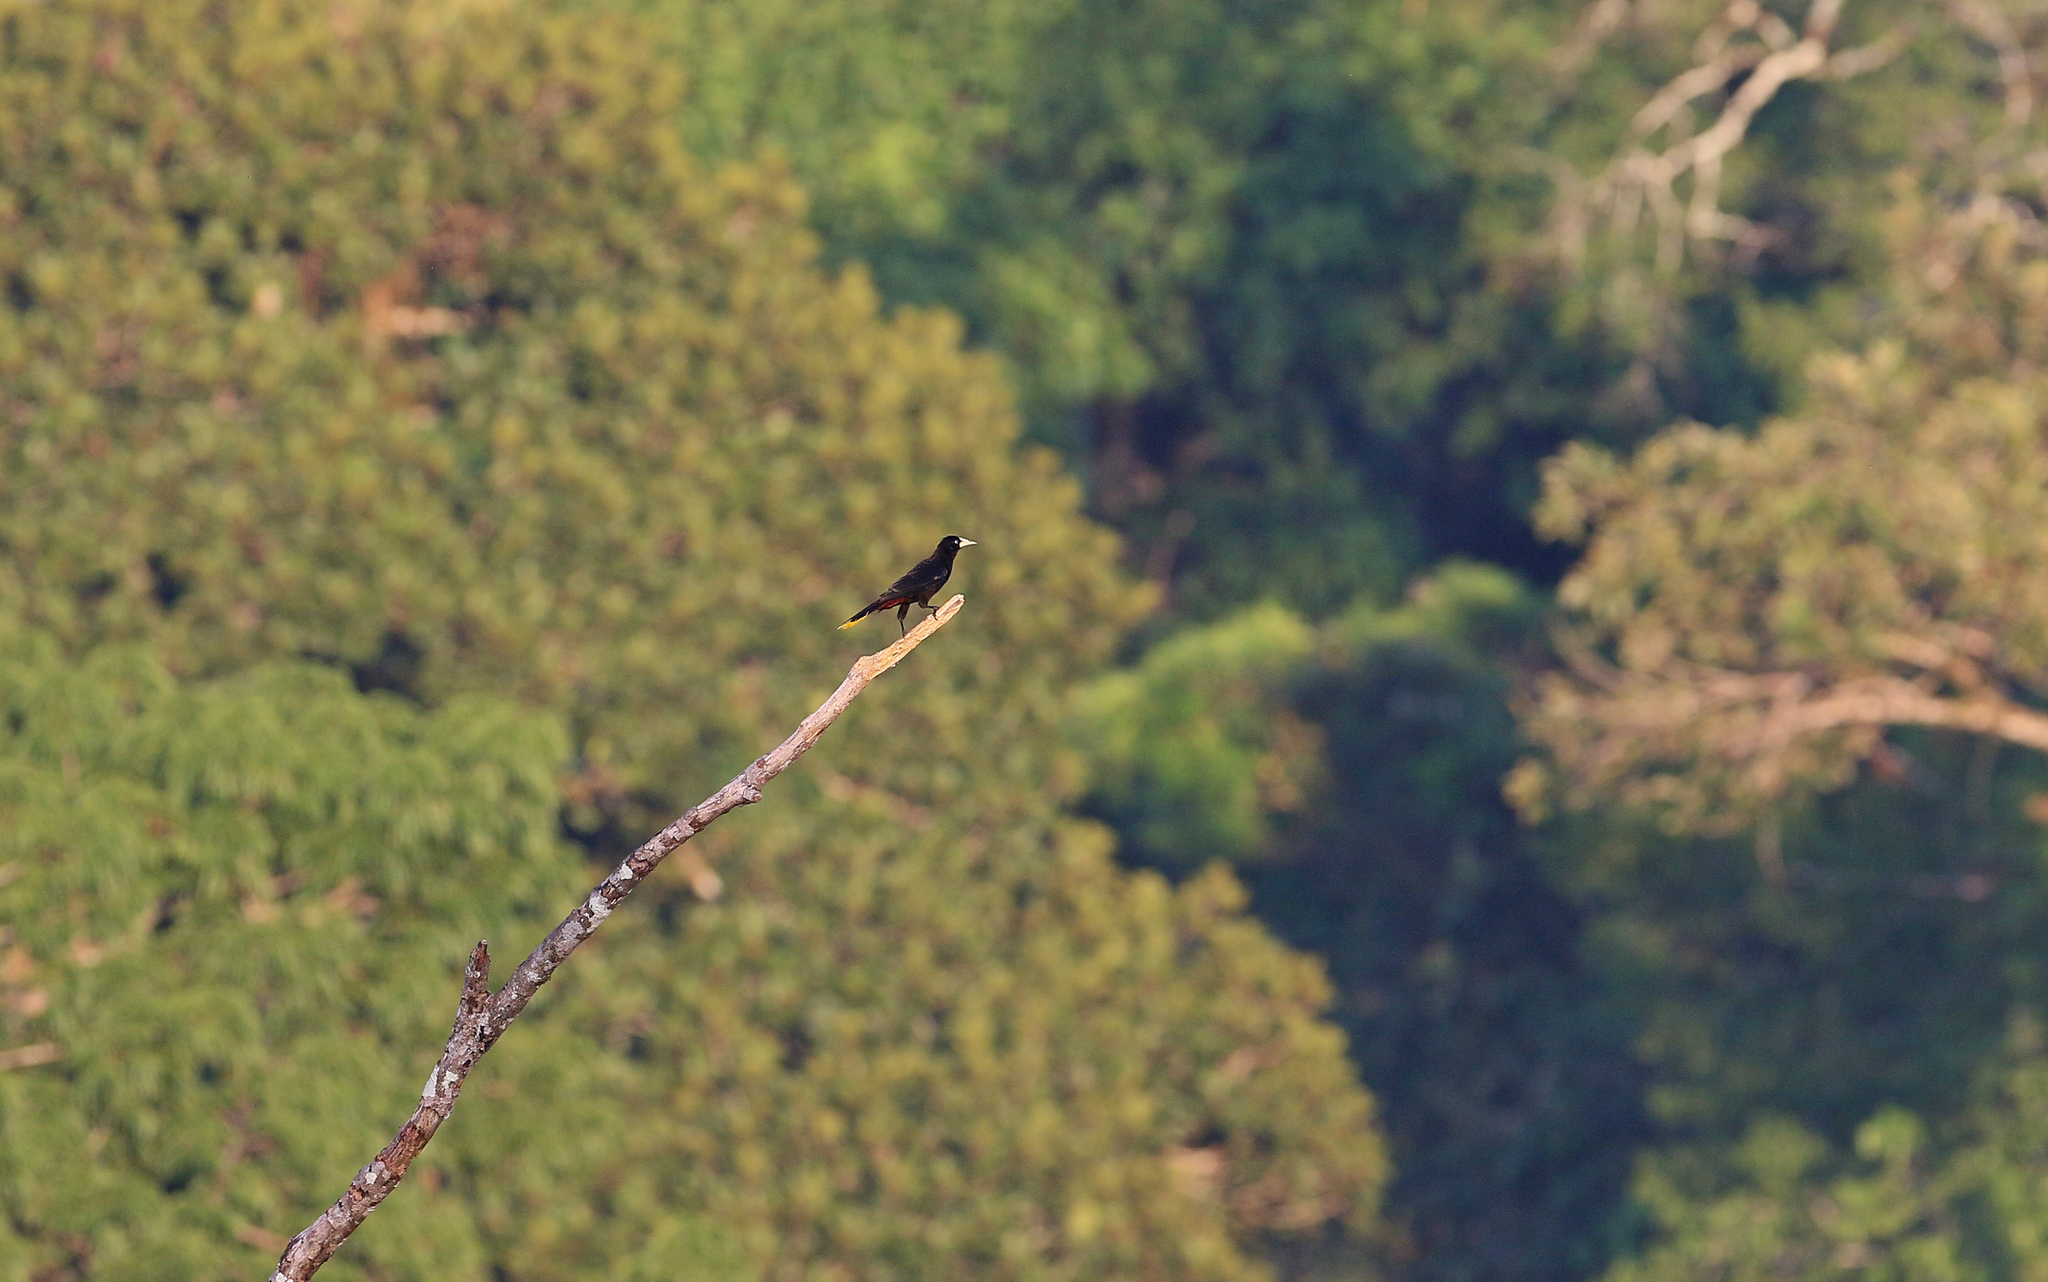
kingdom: Animalia
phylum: Chordata
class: Aves
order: Passeriformes
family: Icteridae
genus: Psarocolius
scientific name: Psarocolius decumanus
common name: Crested oropendola
